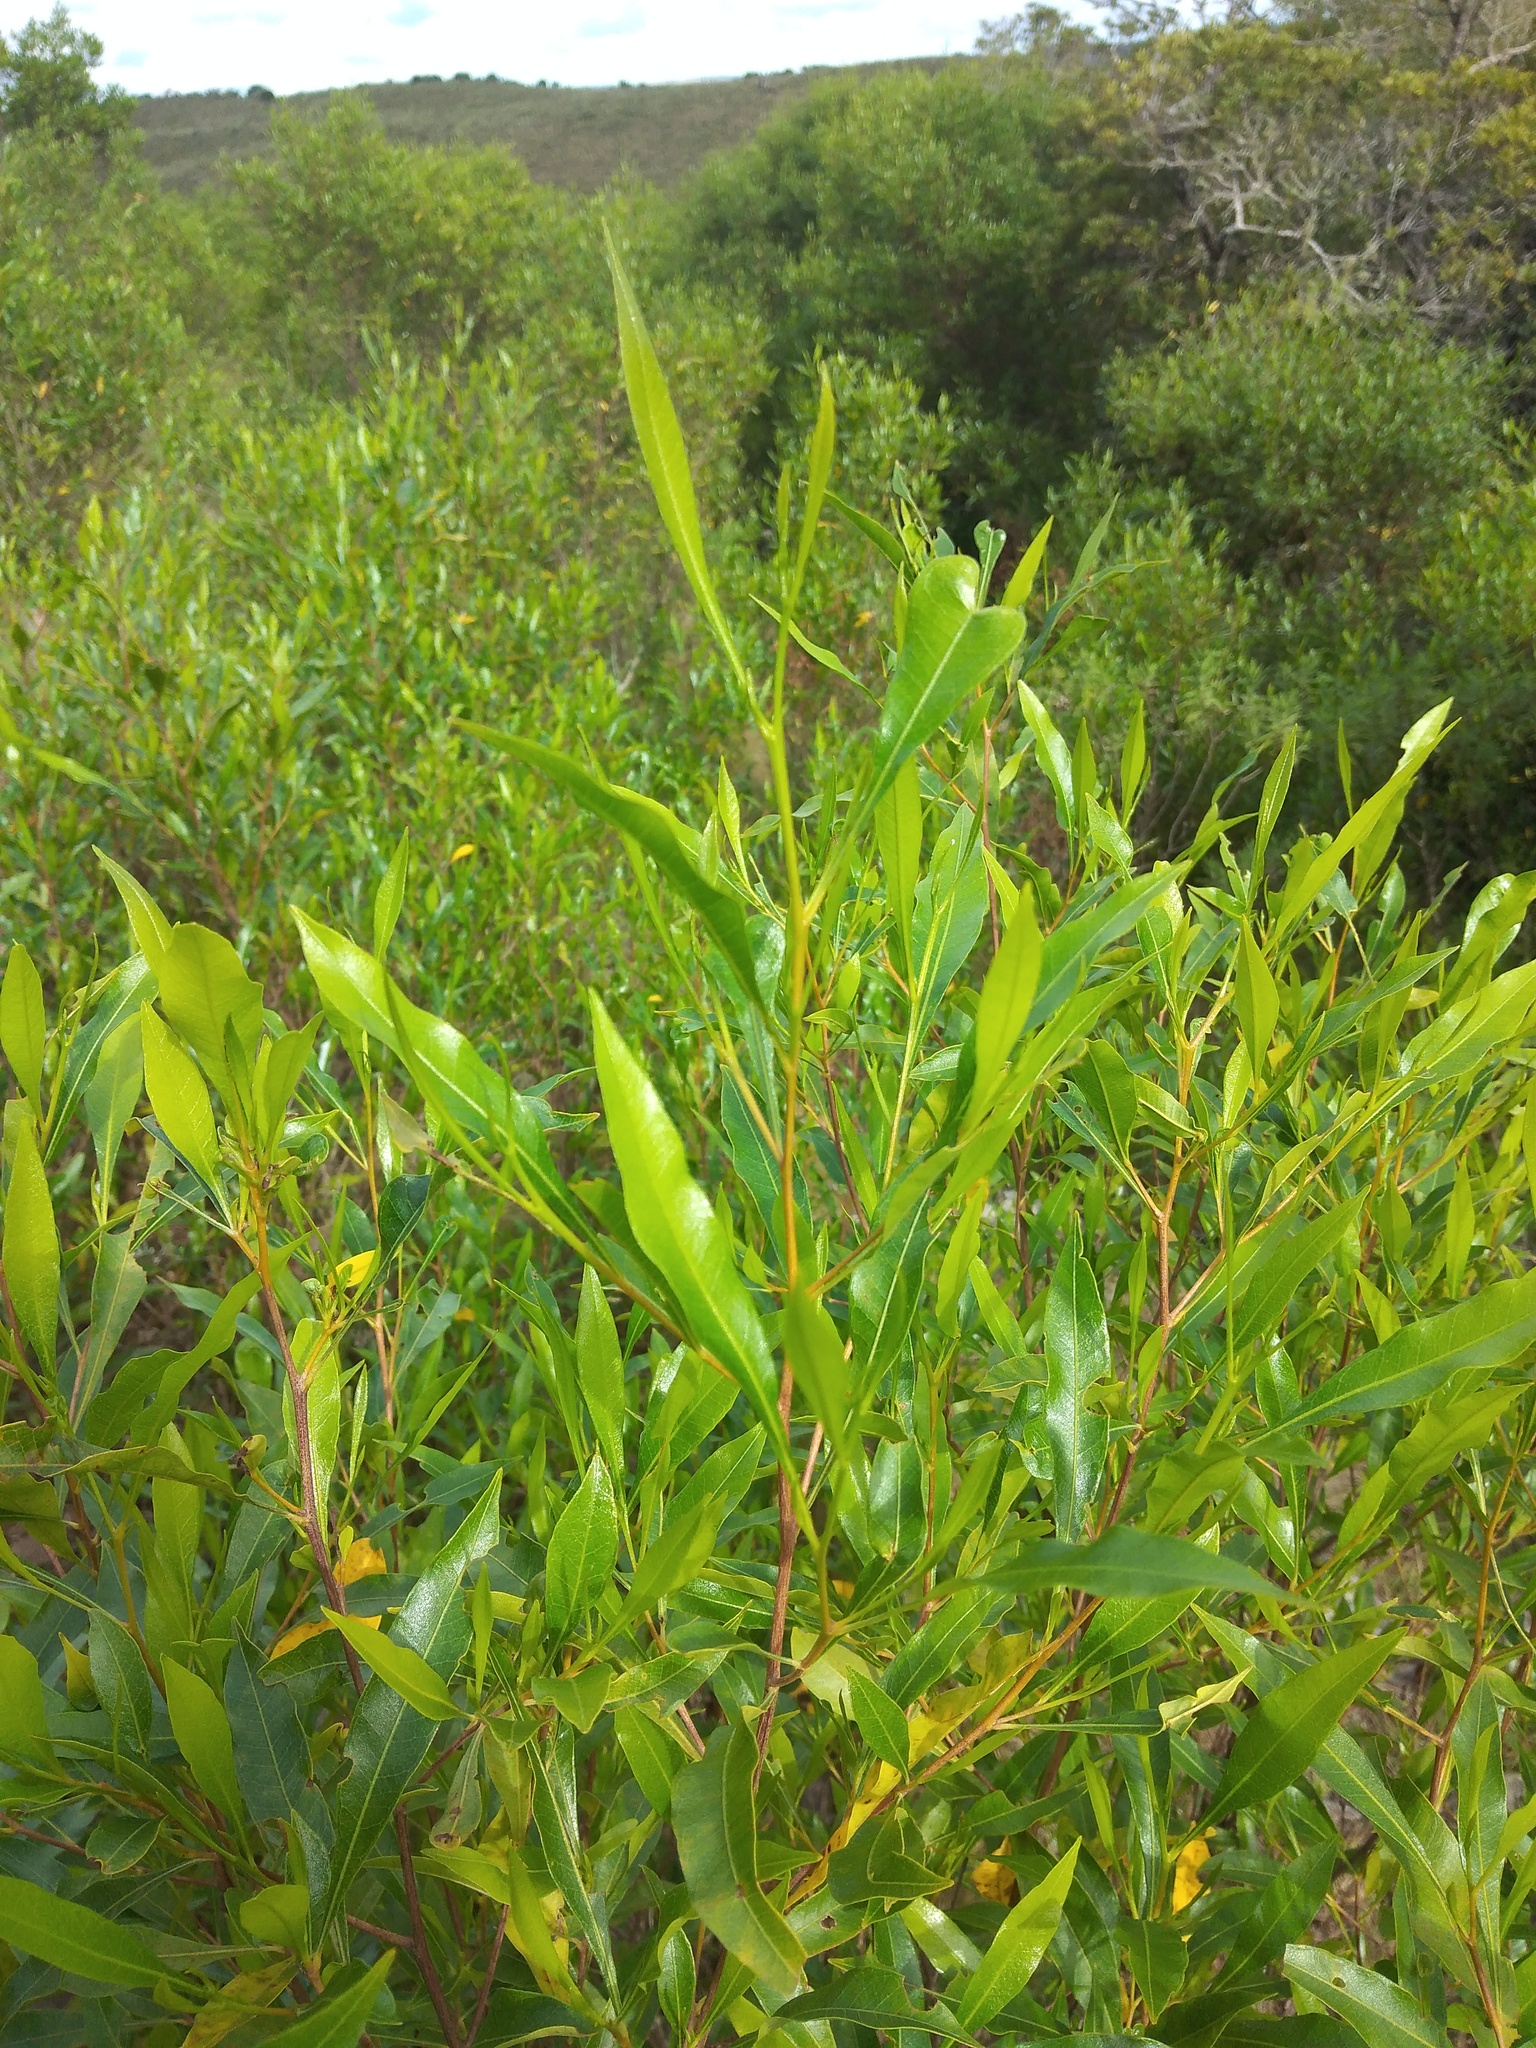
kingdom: Plantae
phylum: Tracheophyta
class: Magnoliopsida
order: Sapindales
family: Sapindaceae
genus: Dodonaea
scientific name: Dodonaea viscosa
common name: Hopbush
